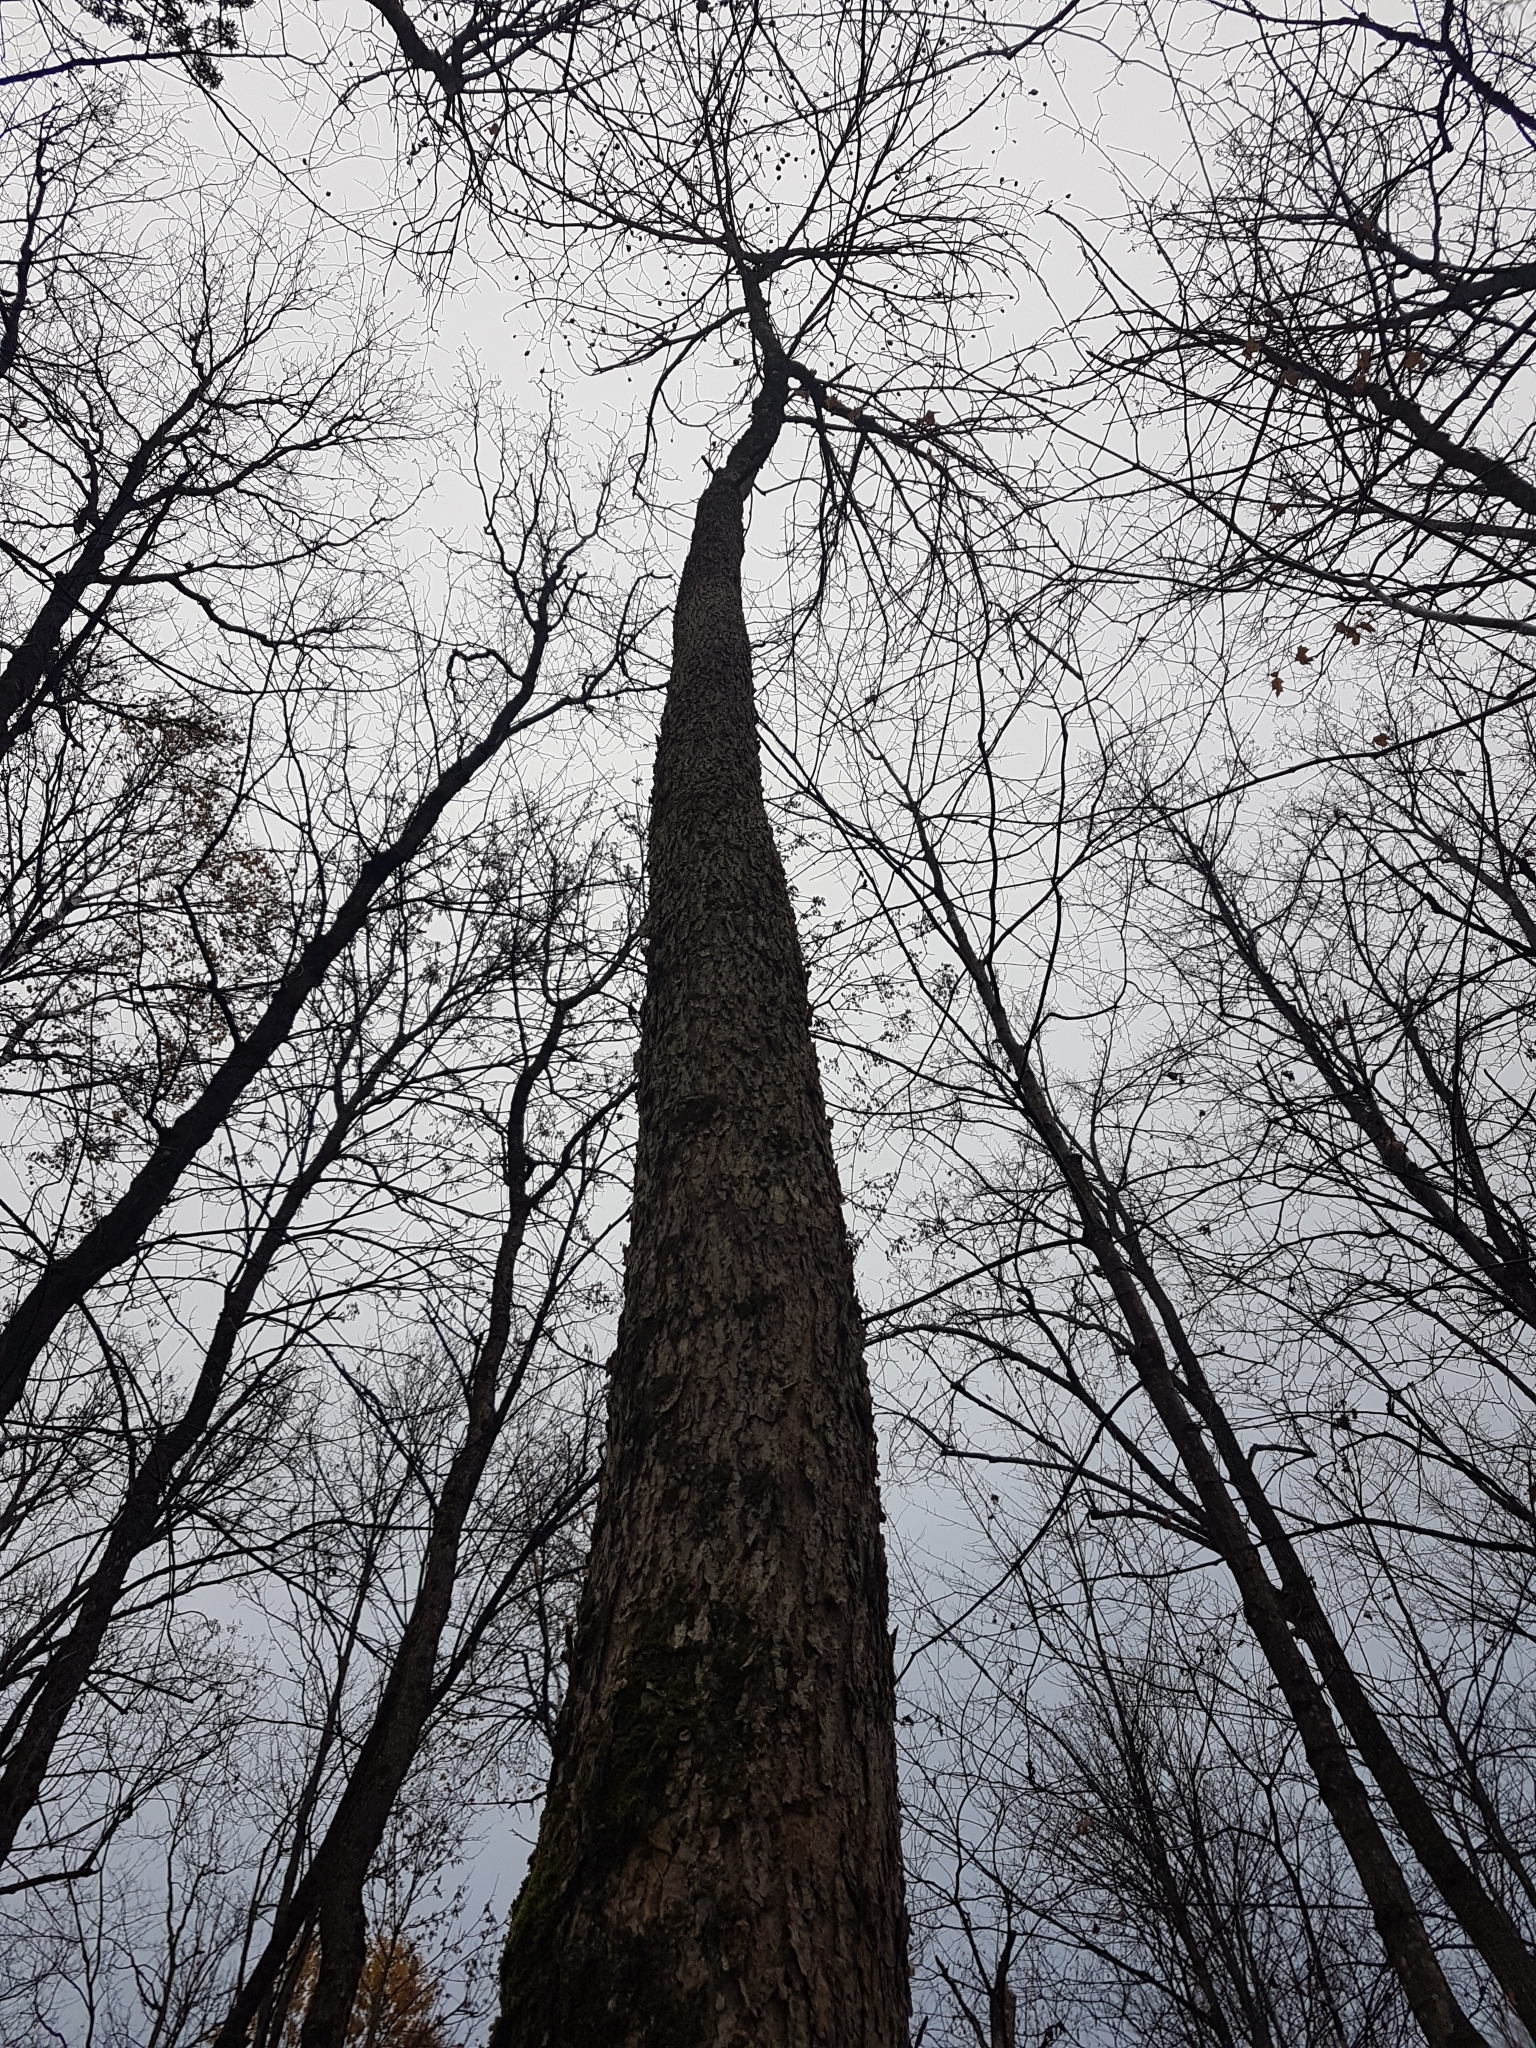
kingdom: Plantae
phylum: Tracheophyta
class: Magnoliopsida
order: Lamiales
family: Oleaceae
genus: Fraxinus
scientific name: Fraxinus nigra
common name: Black ash
